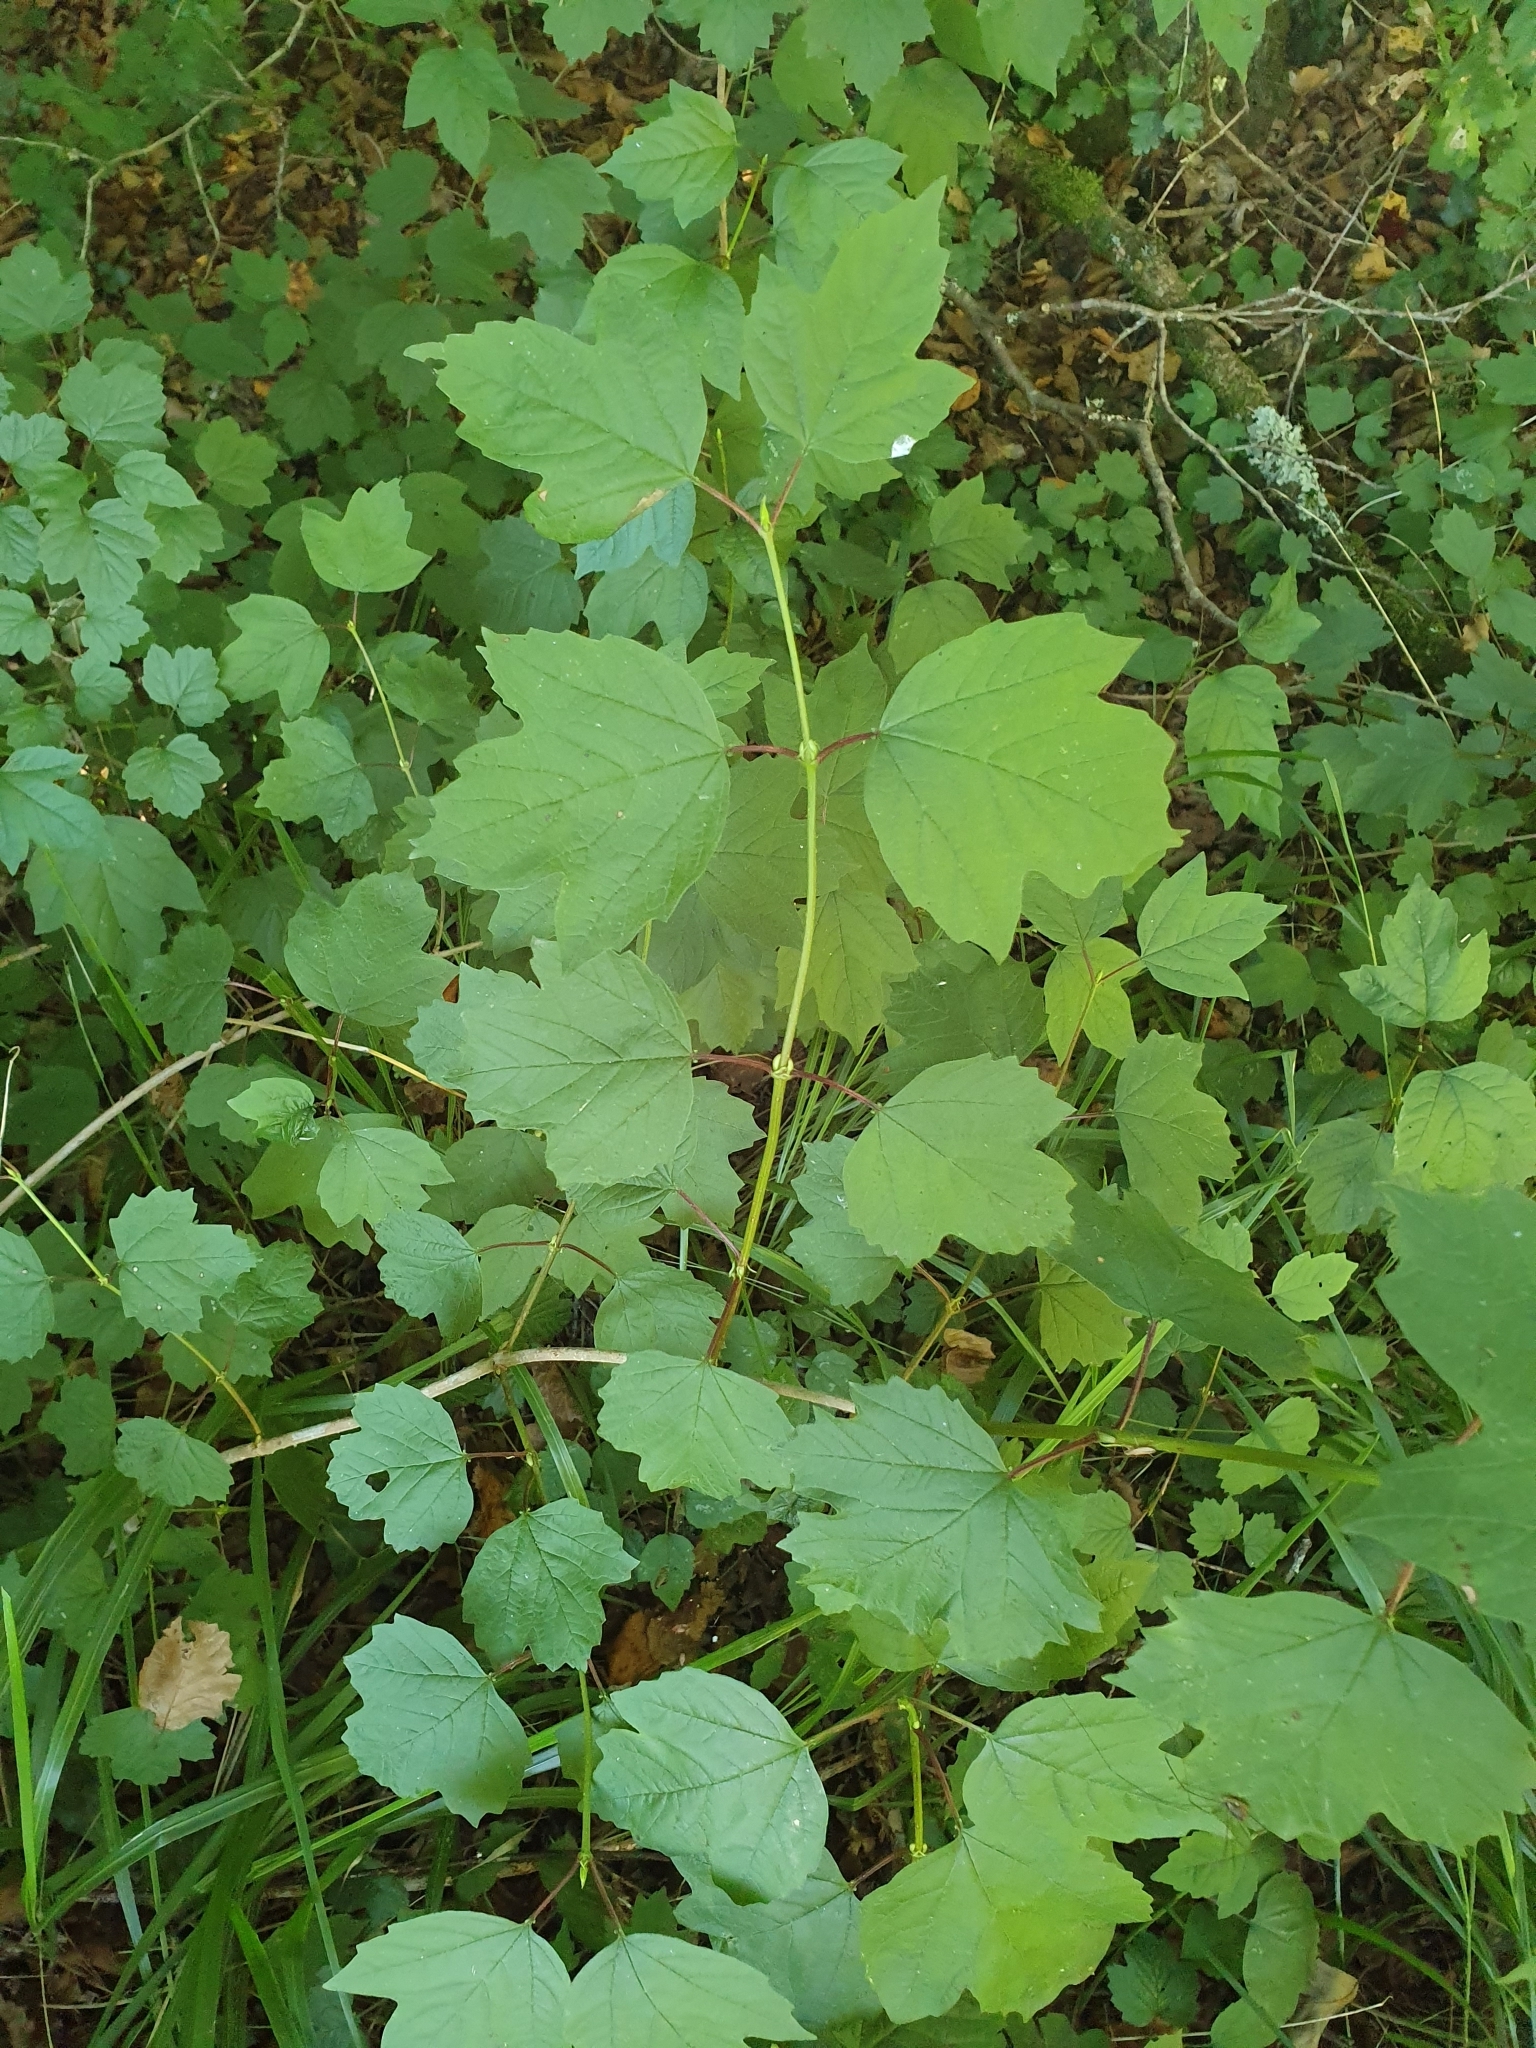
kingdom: Plantae
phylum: Tracheophyta
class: Magnoliopsida
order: Dipsacales
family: Viburnaceae
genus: Viburnum
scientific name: Viburnum opulus
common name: Guelder-rose
